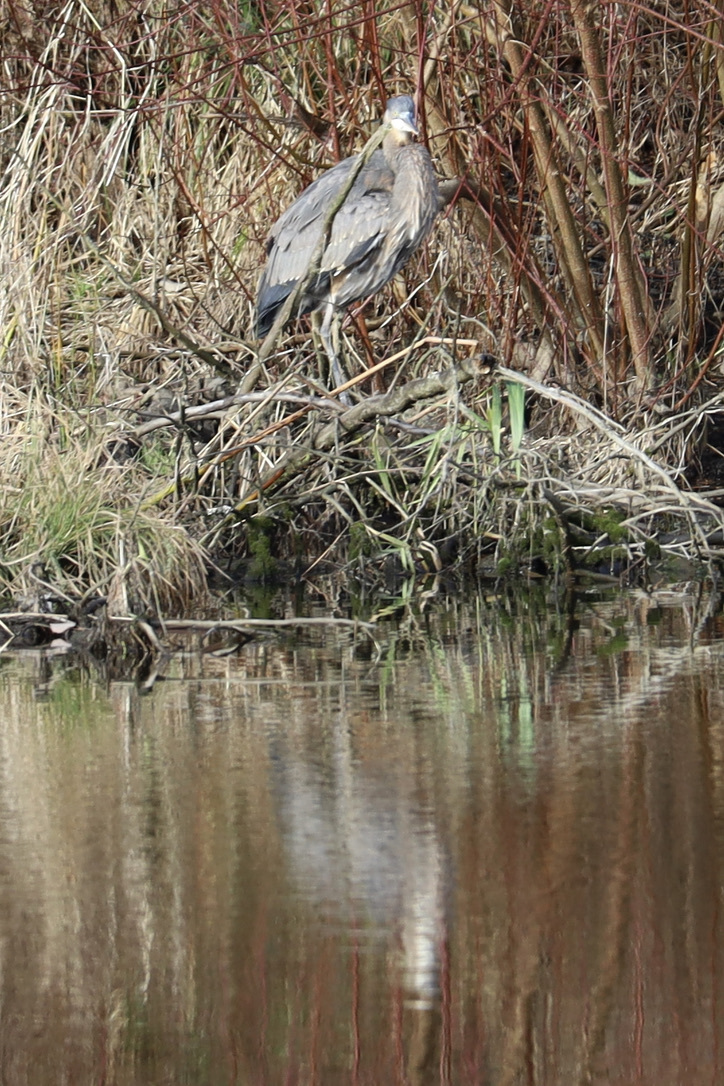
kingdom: Animalia
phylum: Chordata
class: Aves
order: Pelecaniformes
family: Ardeidae
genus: Ardea
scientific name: Ardea herodias
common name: Great blue heron
